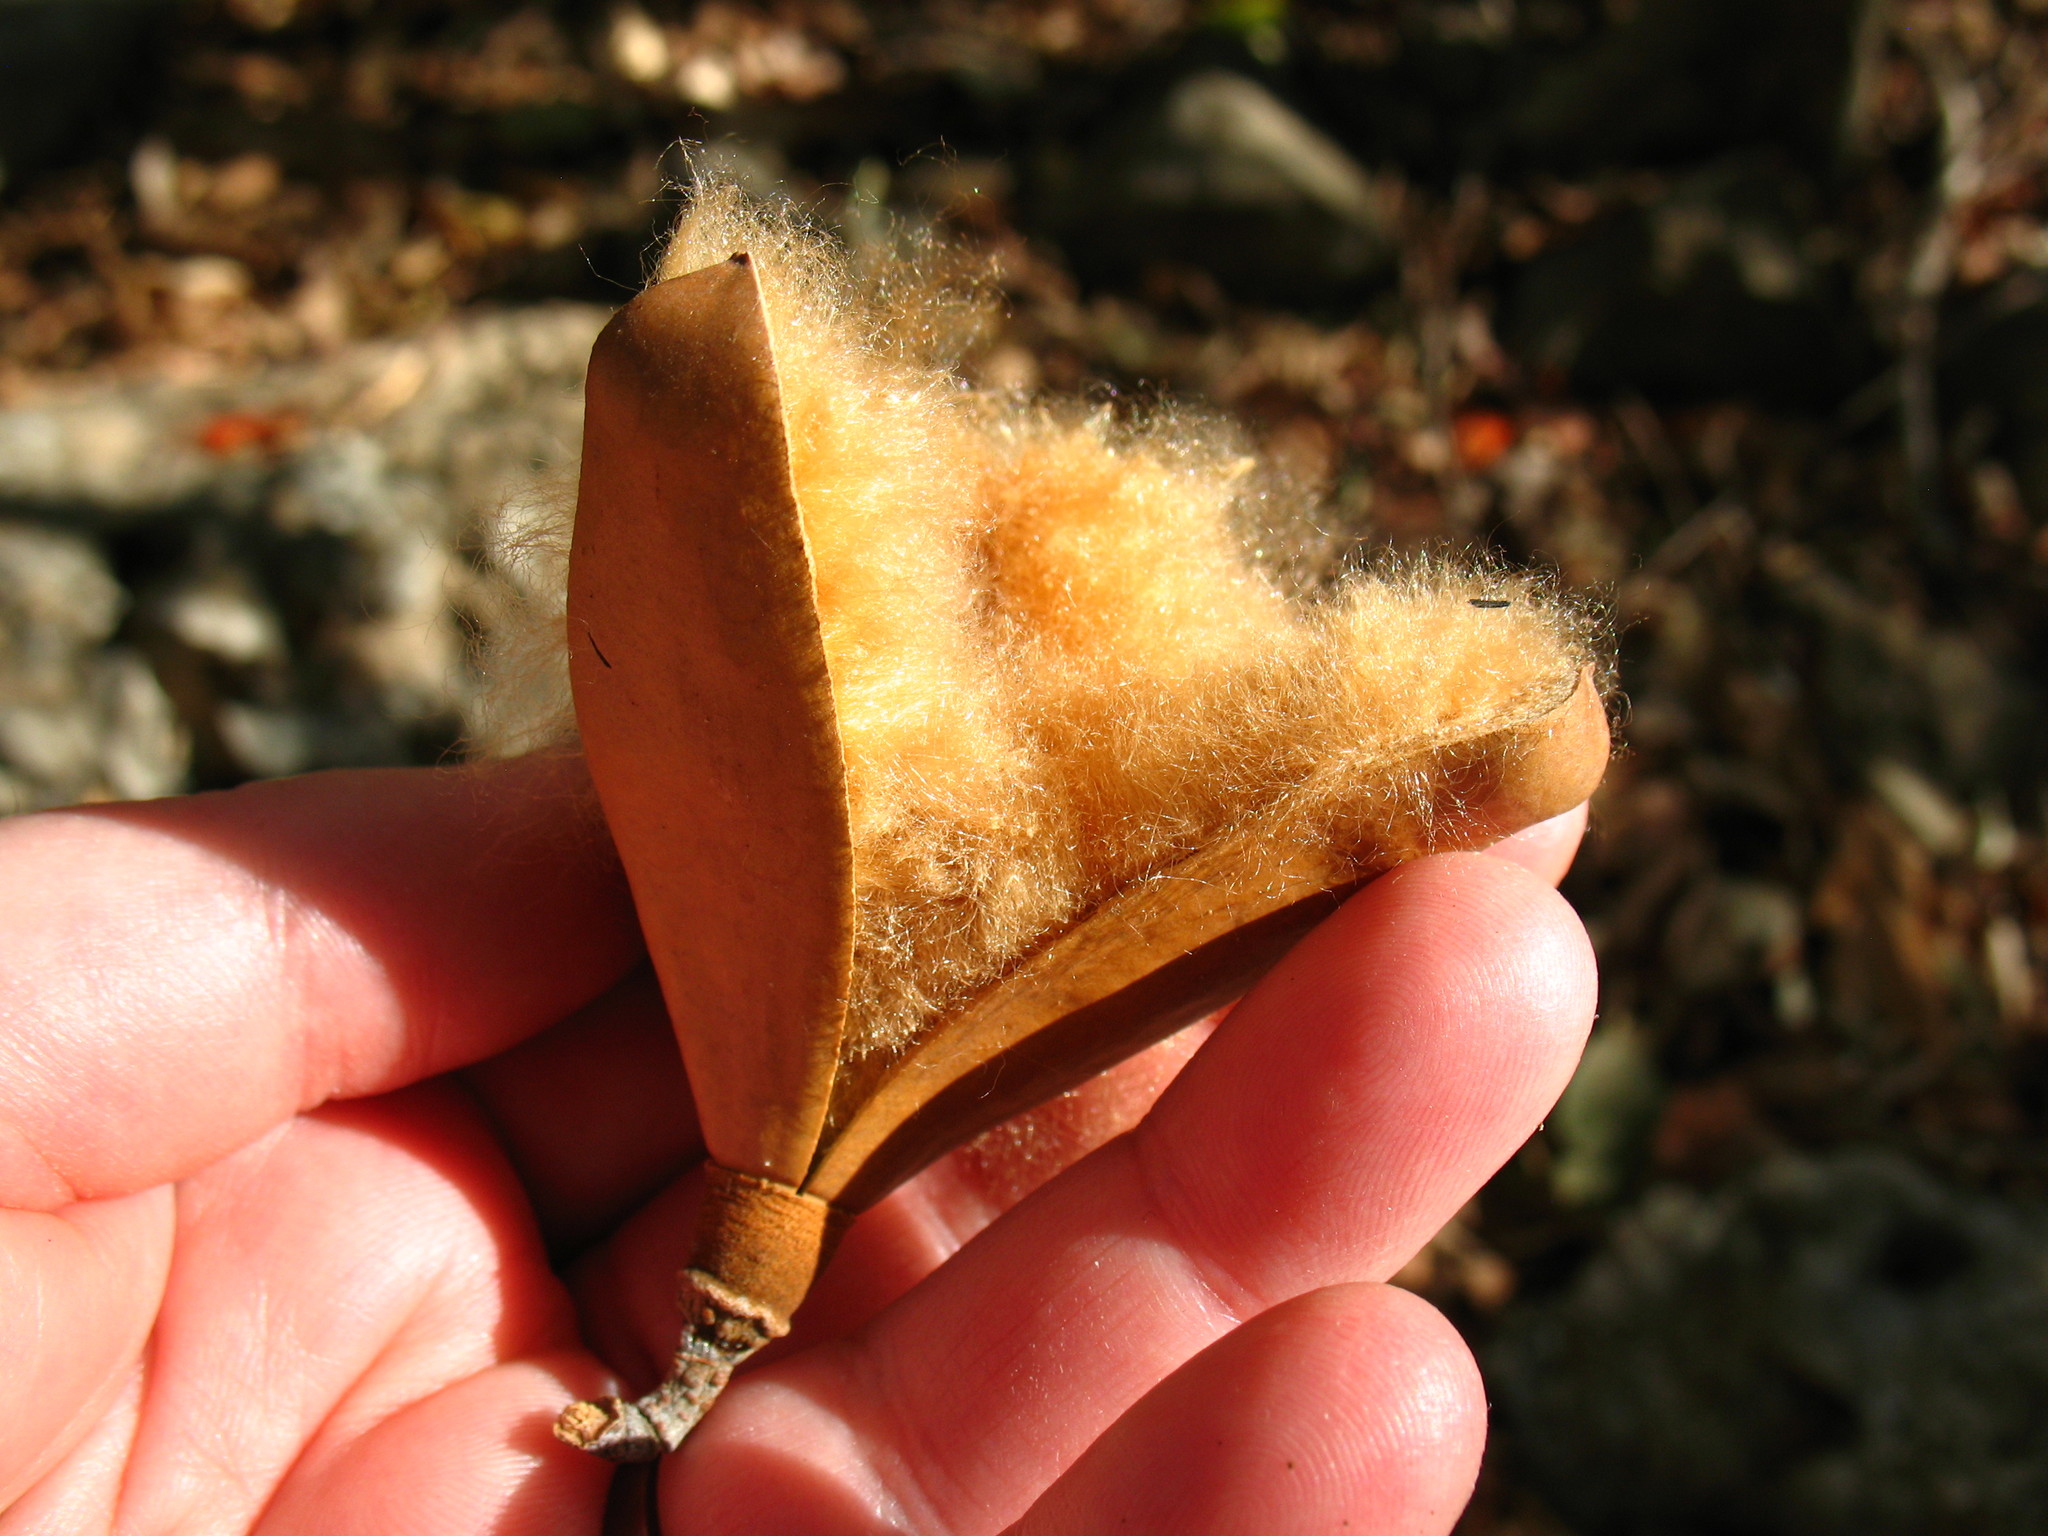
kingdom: Plantae
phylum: Tracheophyta
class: Magnoliopsida
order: Malvales
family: Malvaceae
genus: Pochota
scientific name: Pochota fendleri
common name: Chestnut
